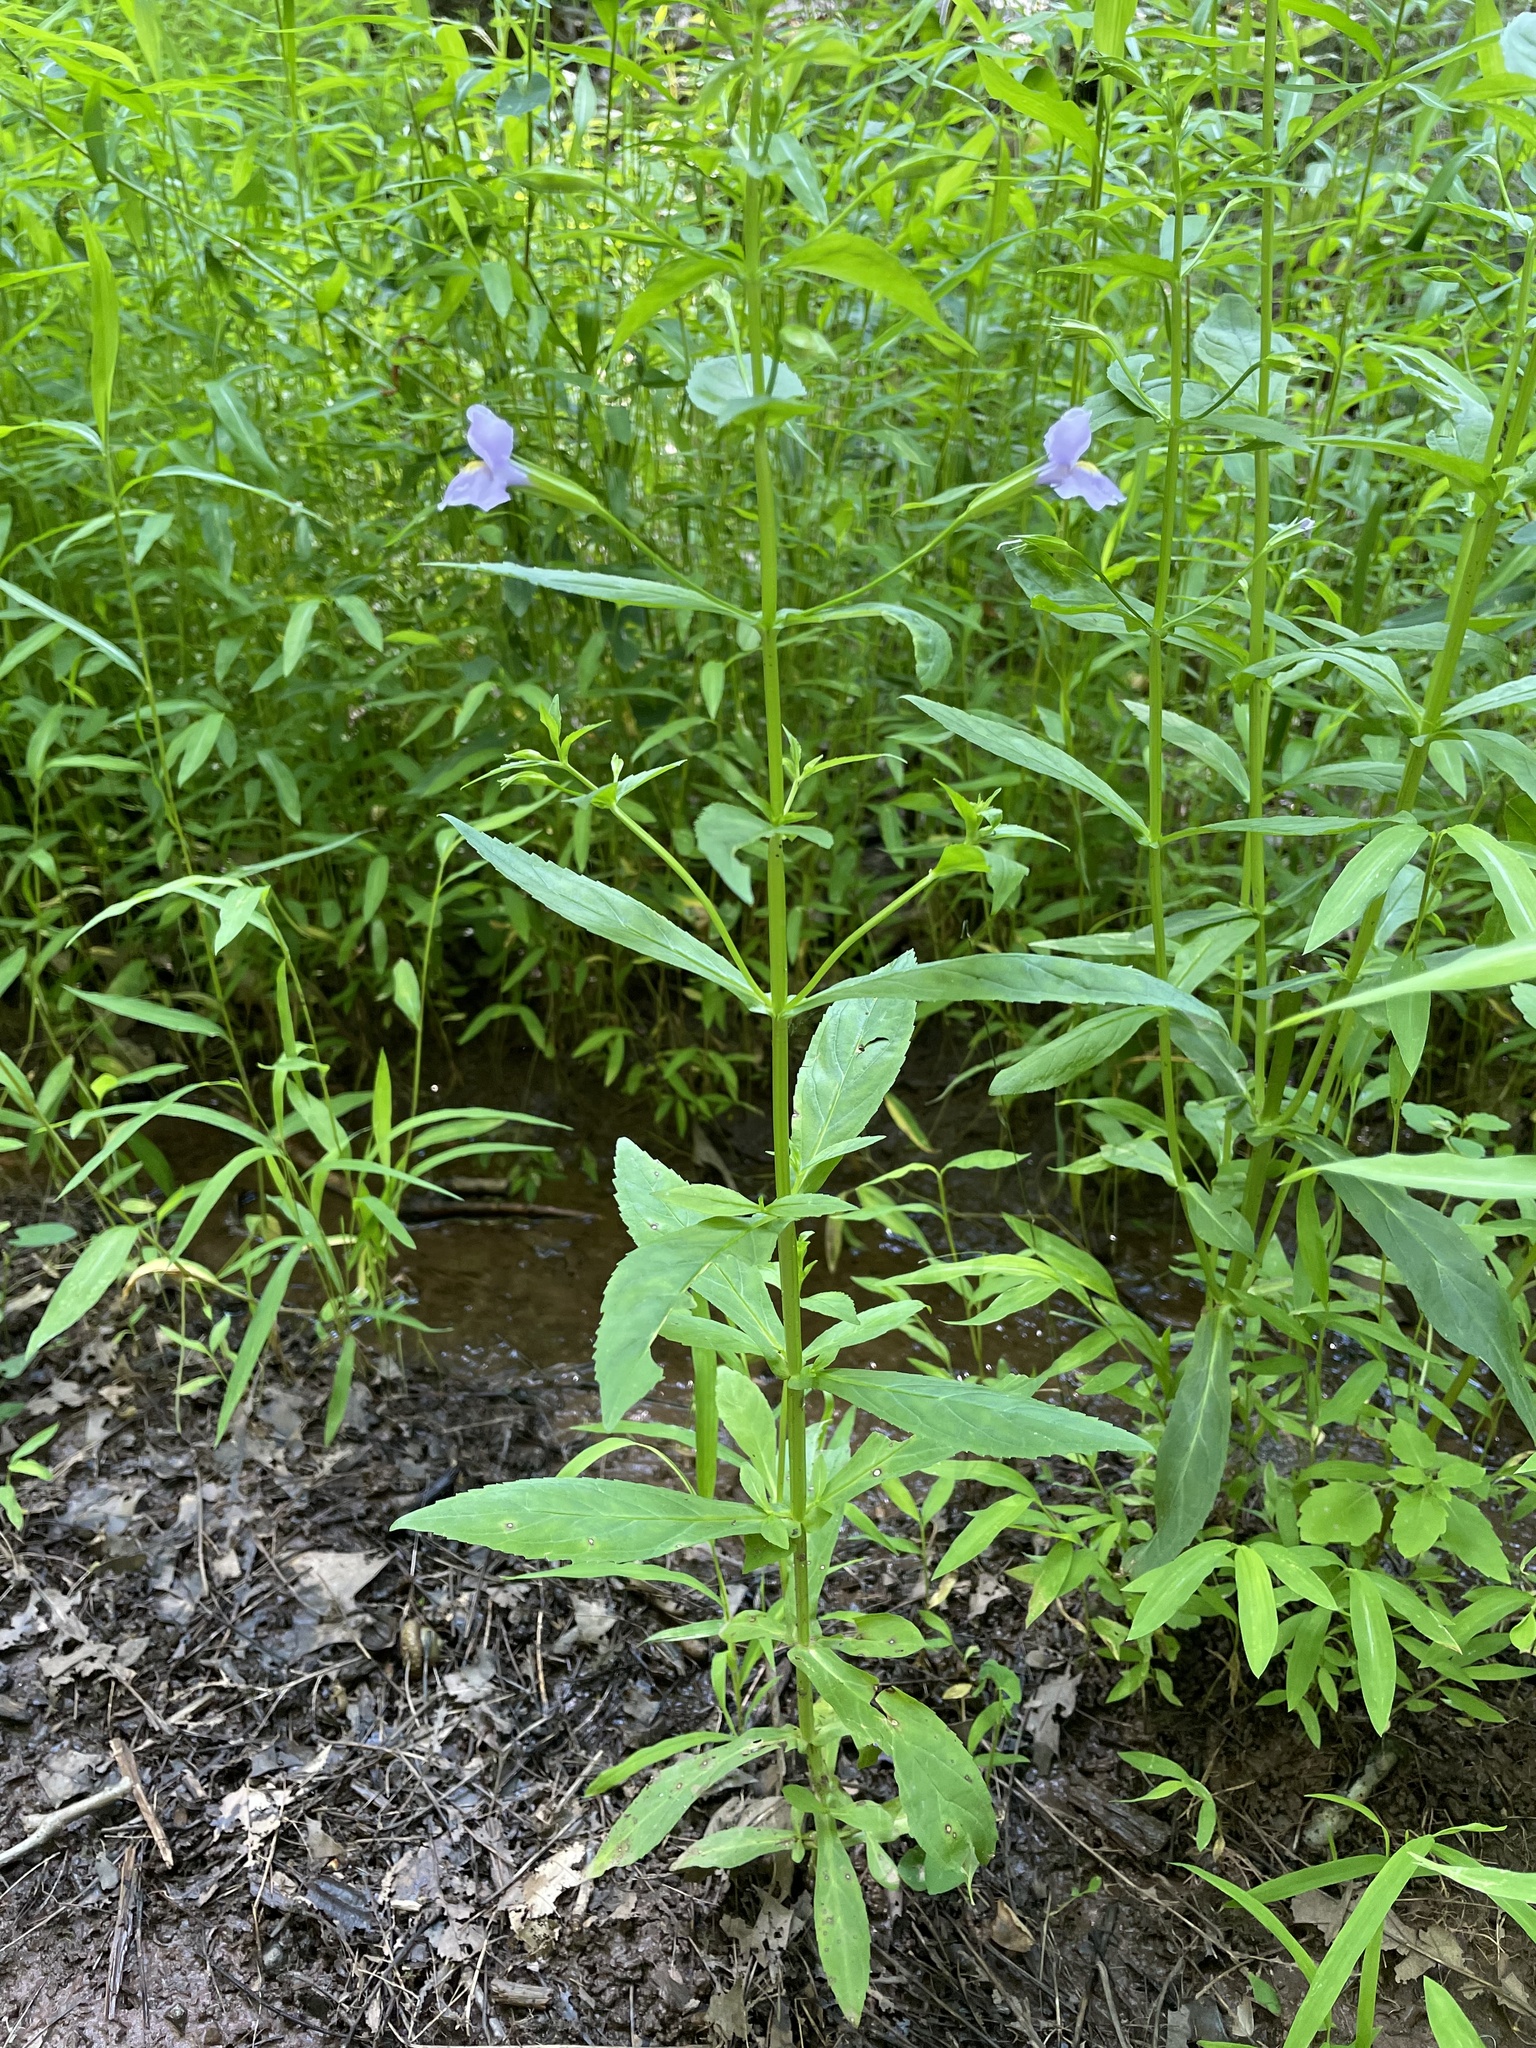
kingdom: Plantae
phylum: Tracheophyta
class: Magnoliopsida
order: Lamiales
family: Phrymaceae
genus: Mimulus
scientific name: Mimulus ringens
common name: Allegheny monkeyflower
